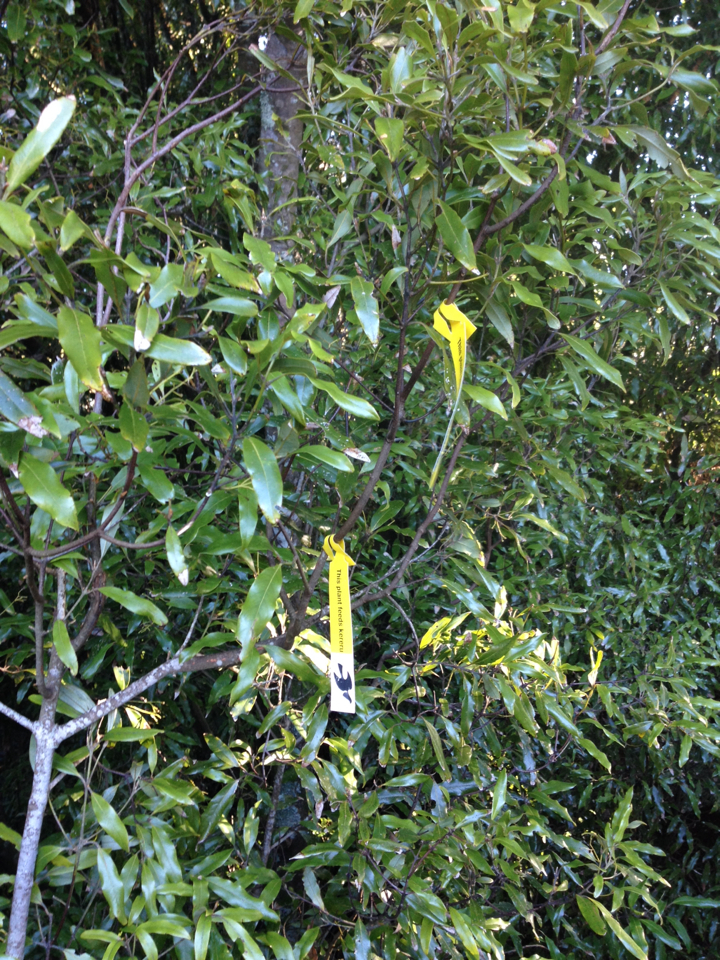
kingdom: Plantae
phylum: Tracheophyta
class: Magnoliopsida
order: Laurales
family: Lauraceae
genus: Beilschmiedia
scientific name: Beilschmiedia tawa
